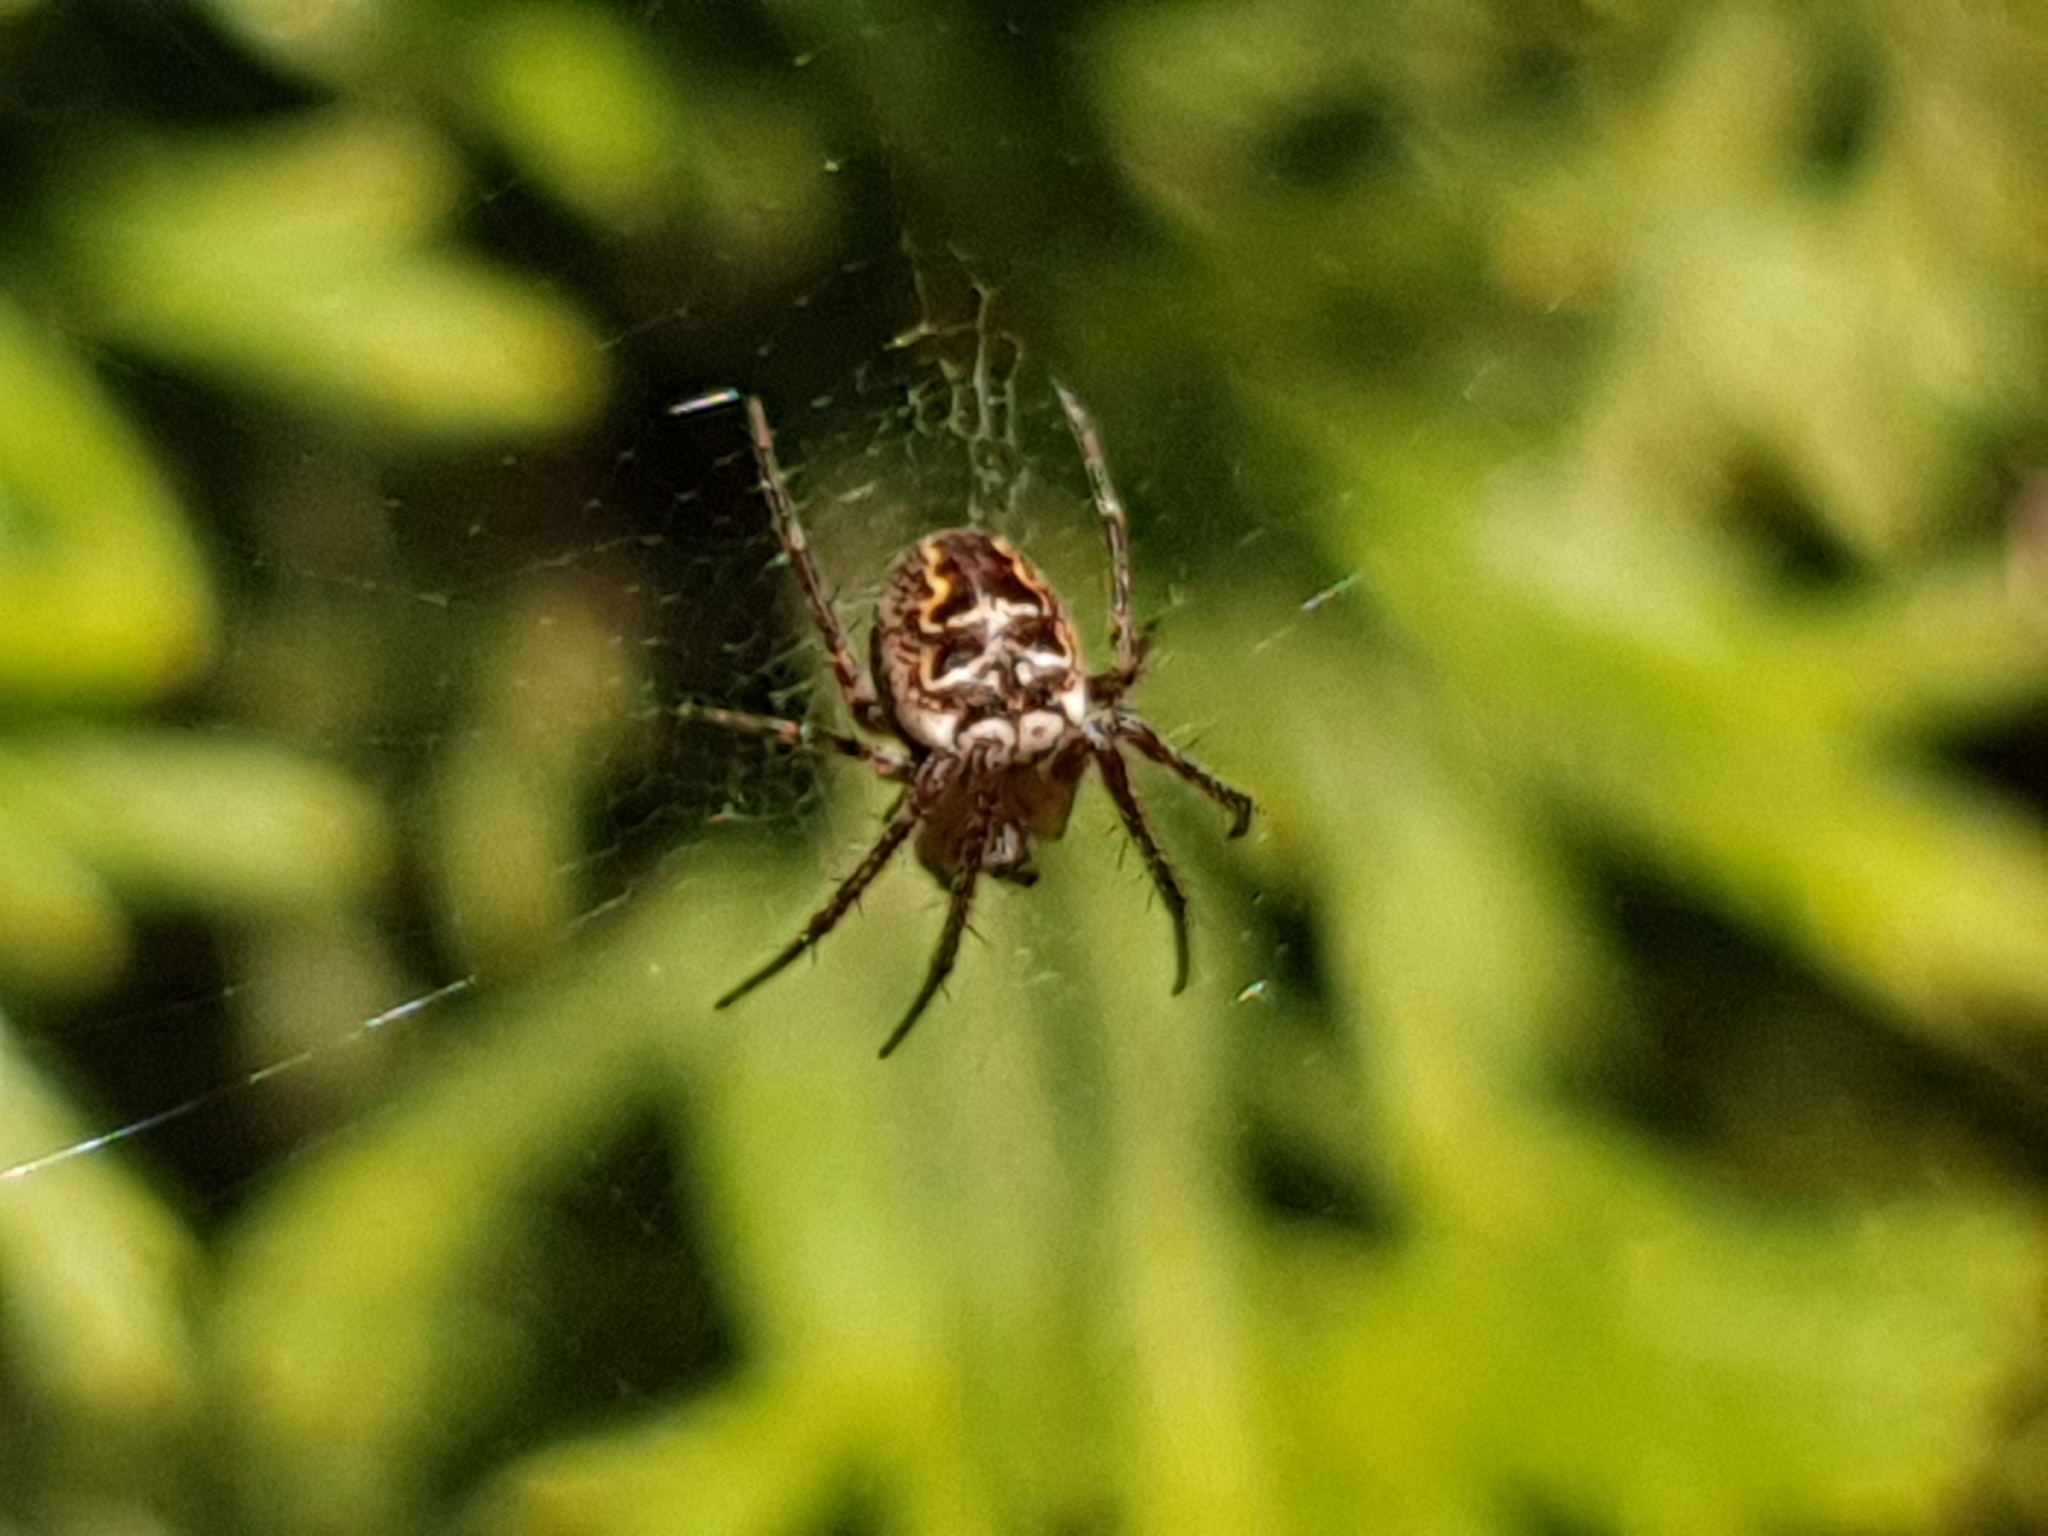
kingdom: Animalia
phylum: Arthropoda
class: Arachnida
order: Araneae
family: Araneidae
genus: Zilla
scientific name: Zilla diodia
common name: Zilla diodia
